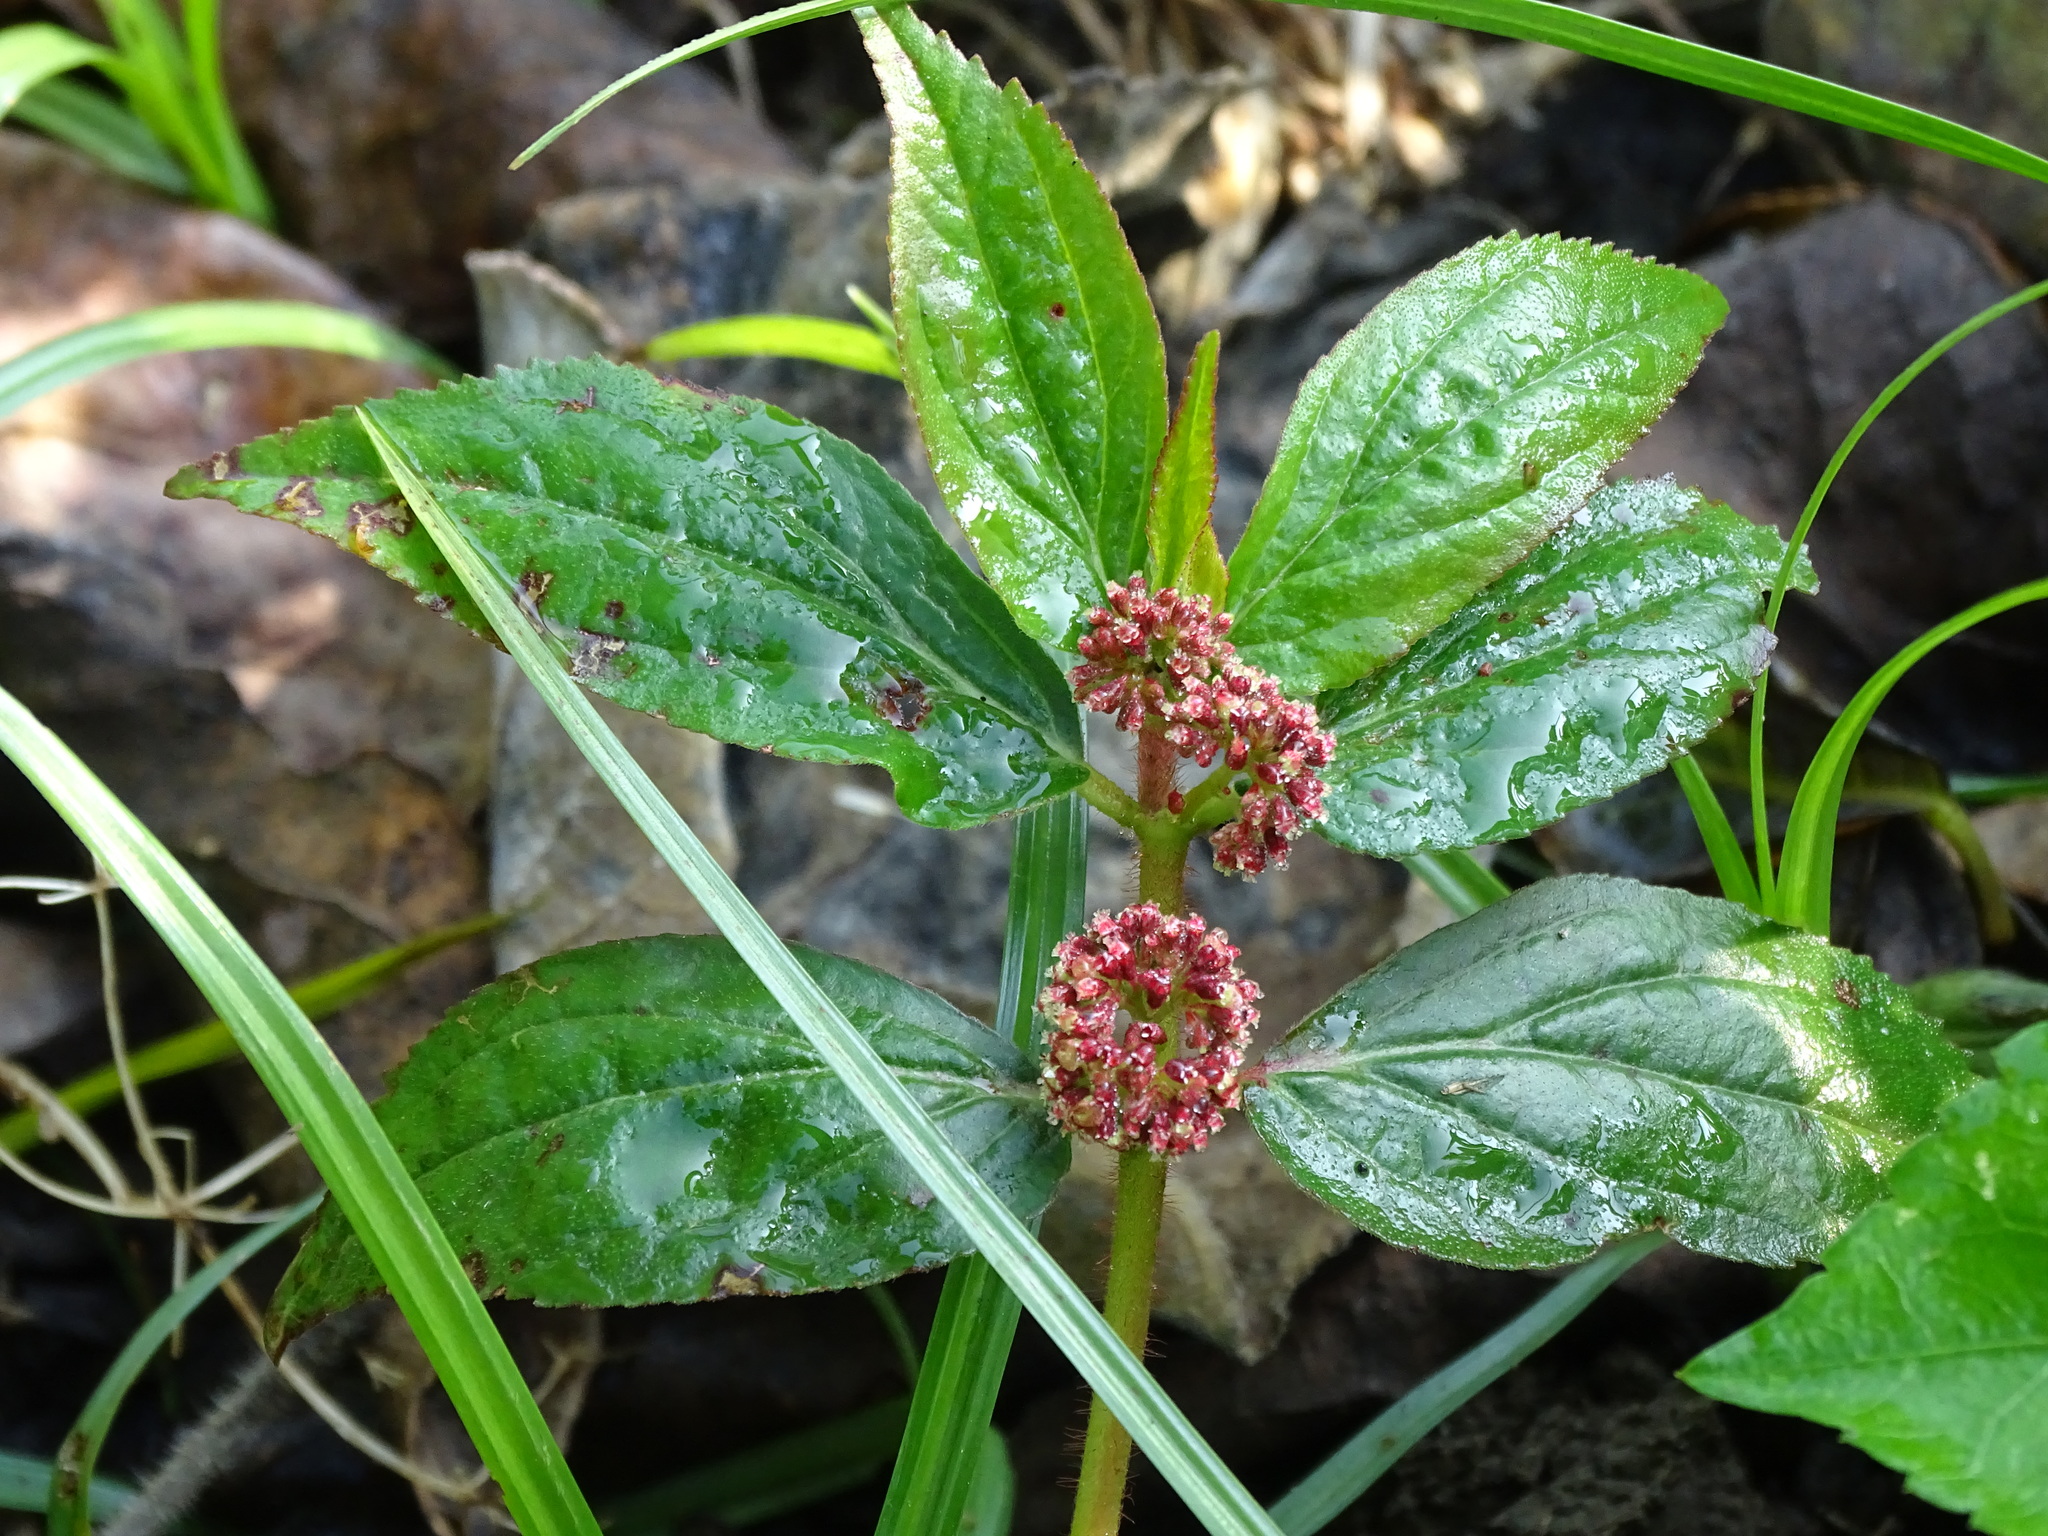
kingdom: Plantae
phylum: Tracheophyta
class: Magnoliopsida
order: Malpighiales
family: Euphorbiaceae
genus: Euphorbia
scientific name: Euphorbia hirta
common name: Pillpod sandmat
